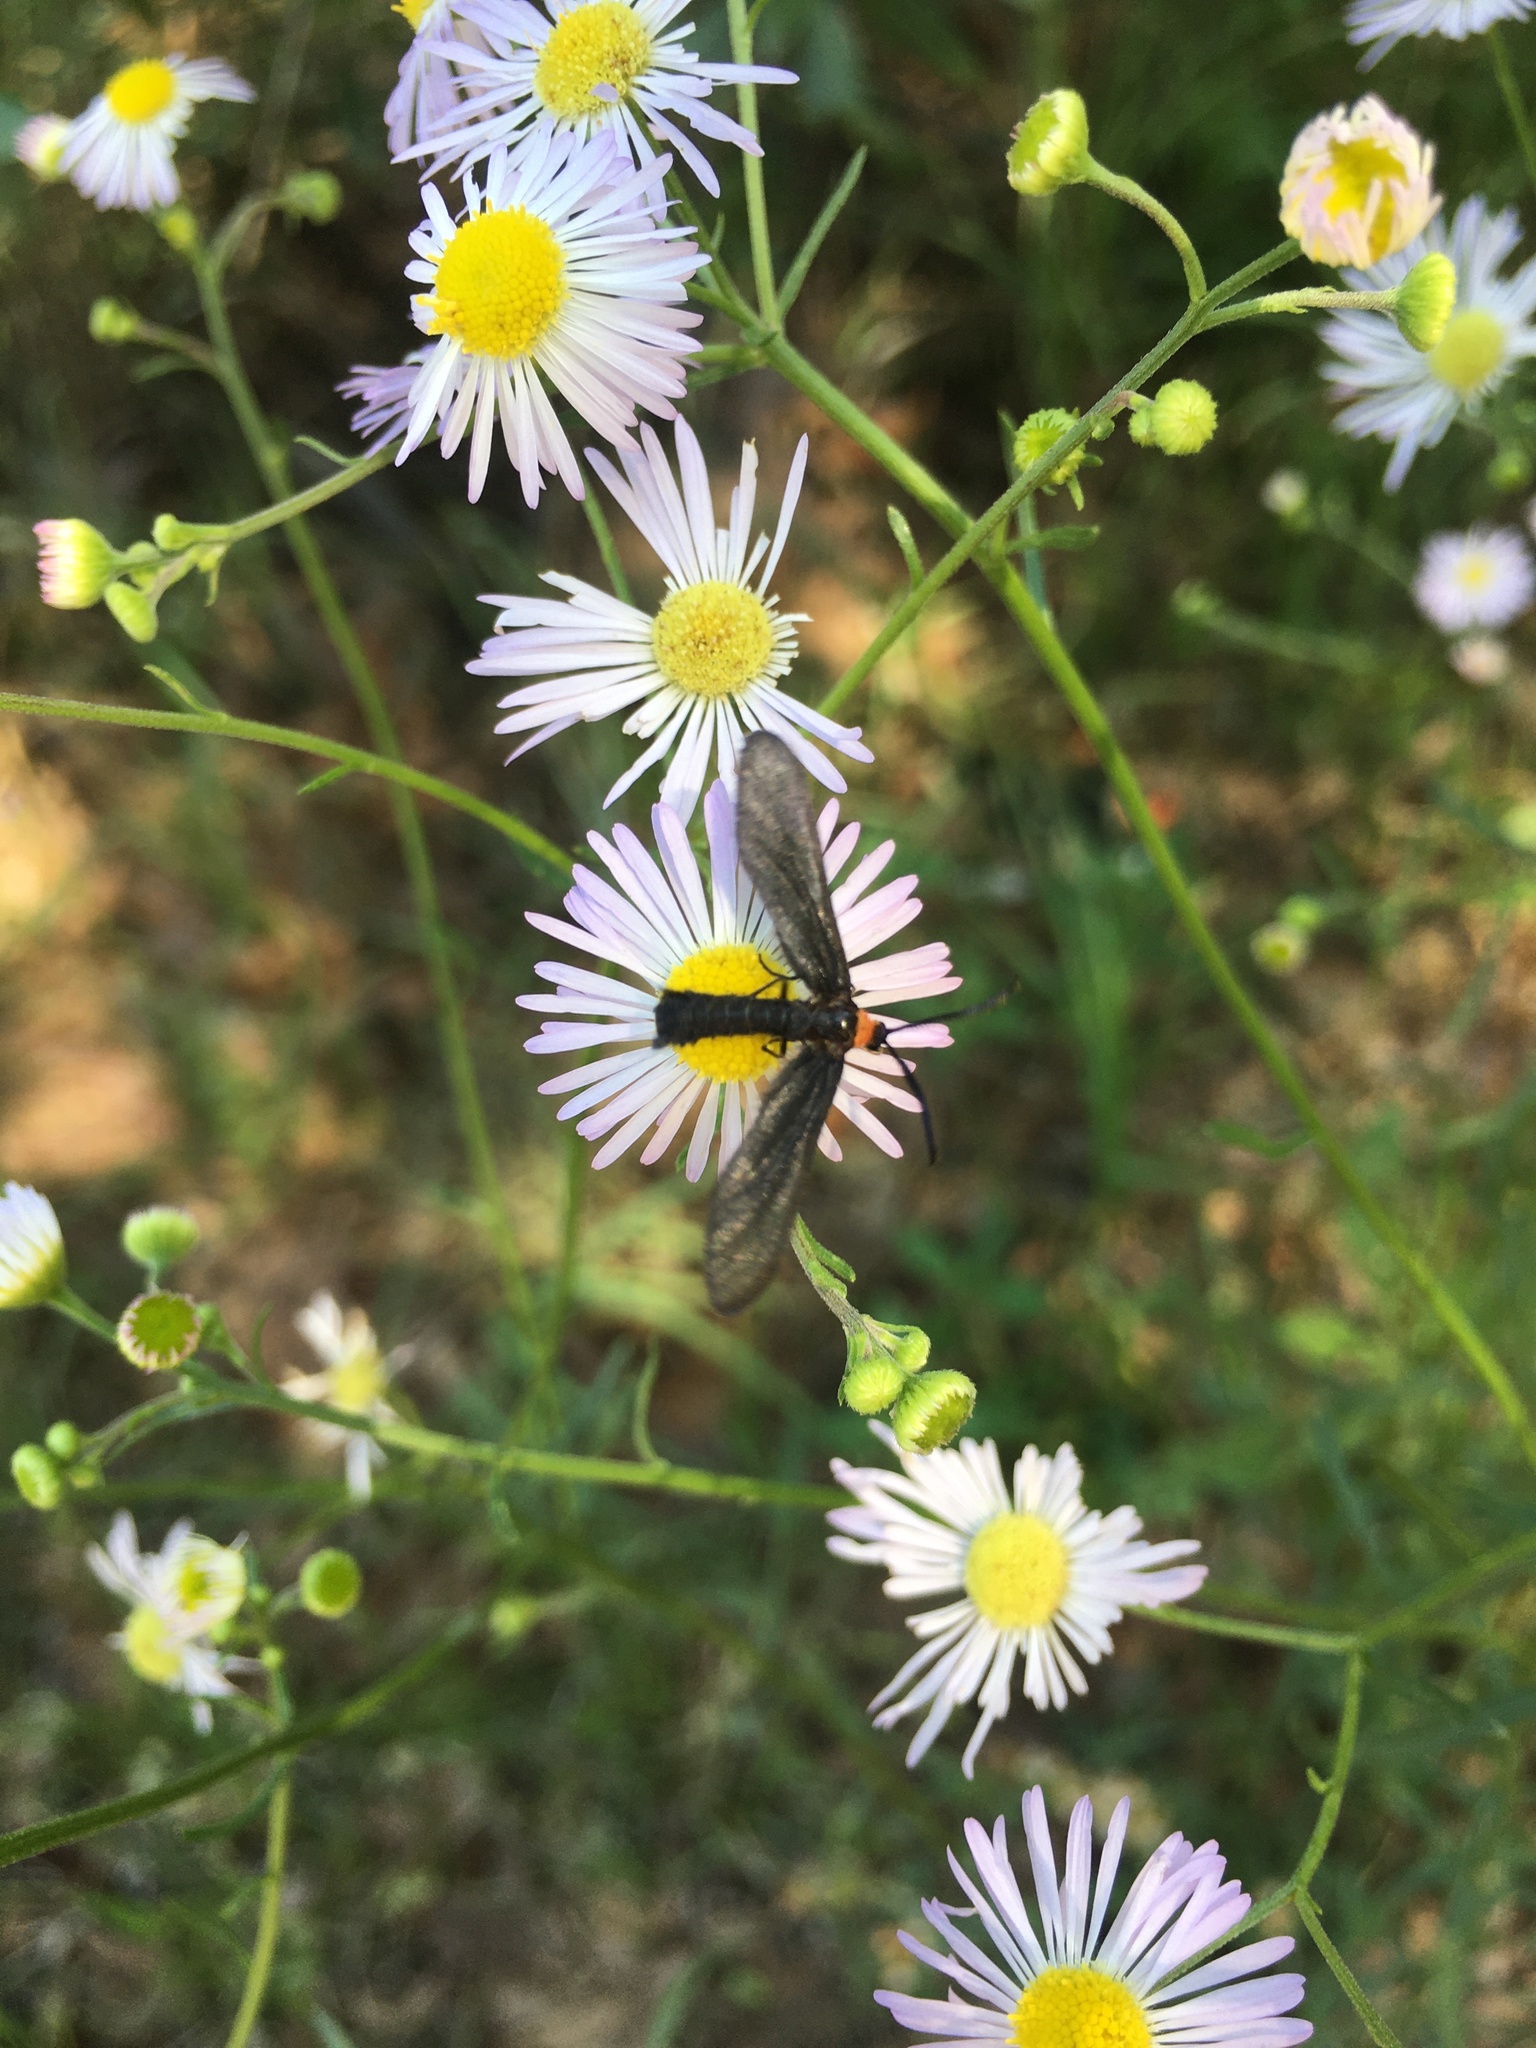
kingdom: Animalia
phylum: Arthropoda
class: Insecta
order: Lepidoptera
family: Zygaenidae
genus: Harrisina
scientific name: Harrisina americana
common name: Grapeleaf skeletonizer moth
